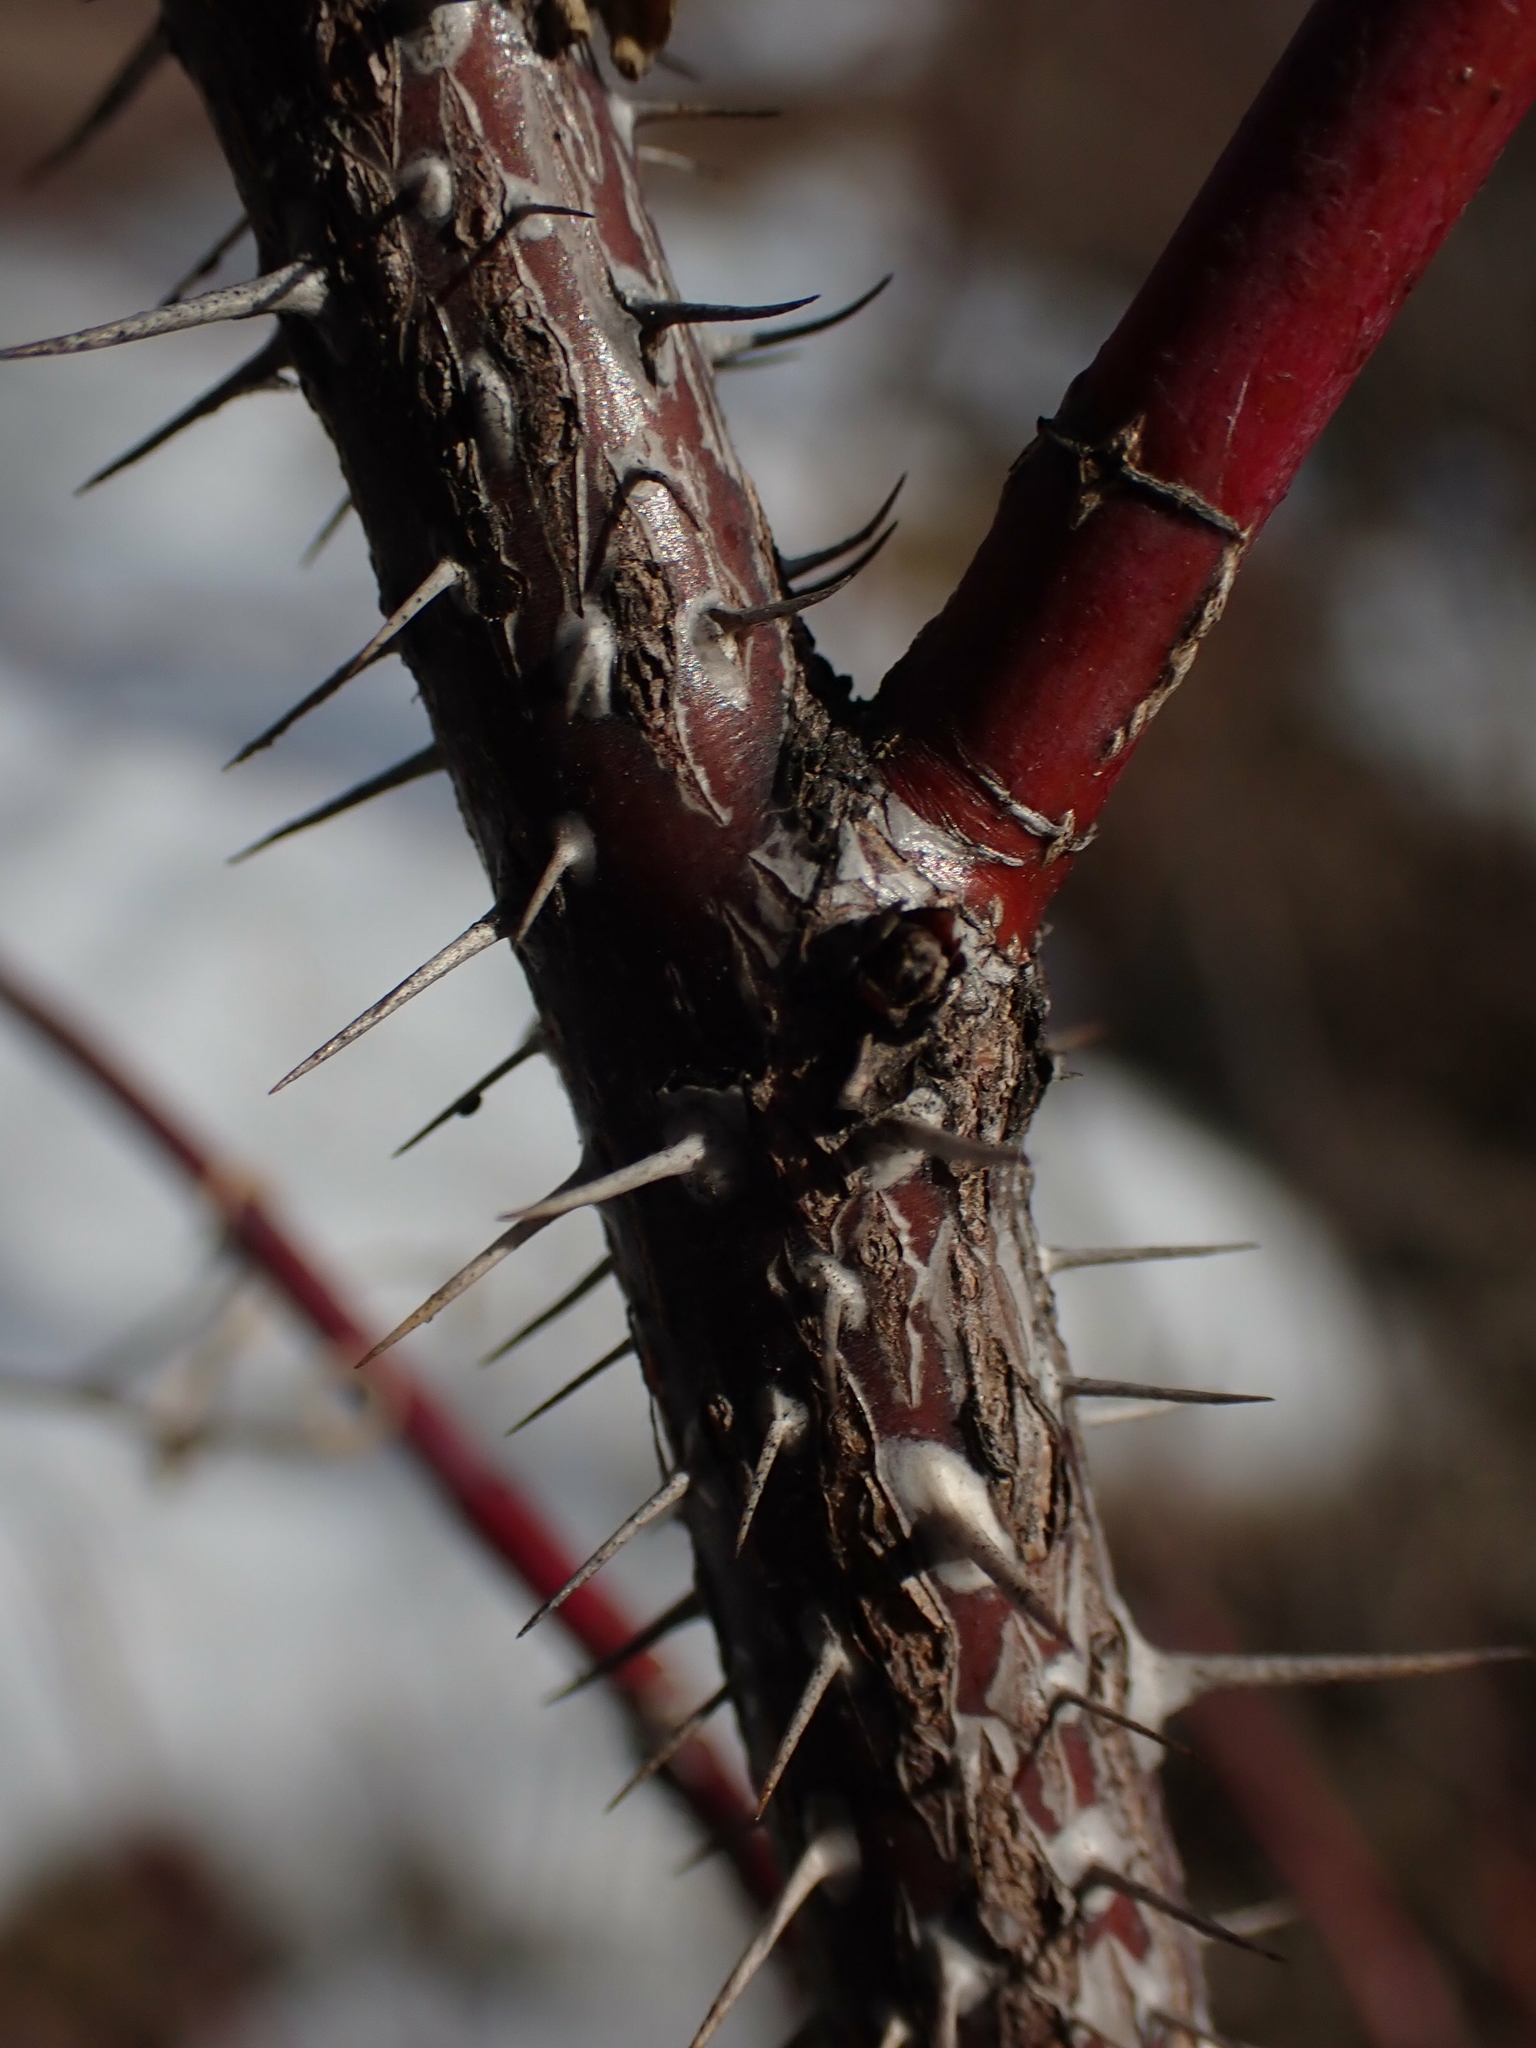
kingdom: Plantae
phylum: Tracheophyta
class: Magnoliopsida
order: Rosales
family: Rosaceae
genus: Rosa
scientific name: Rosa woodsii
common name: Woods's rose
